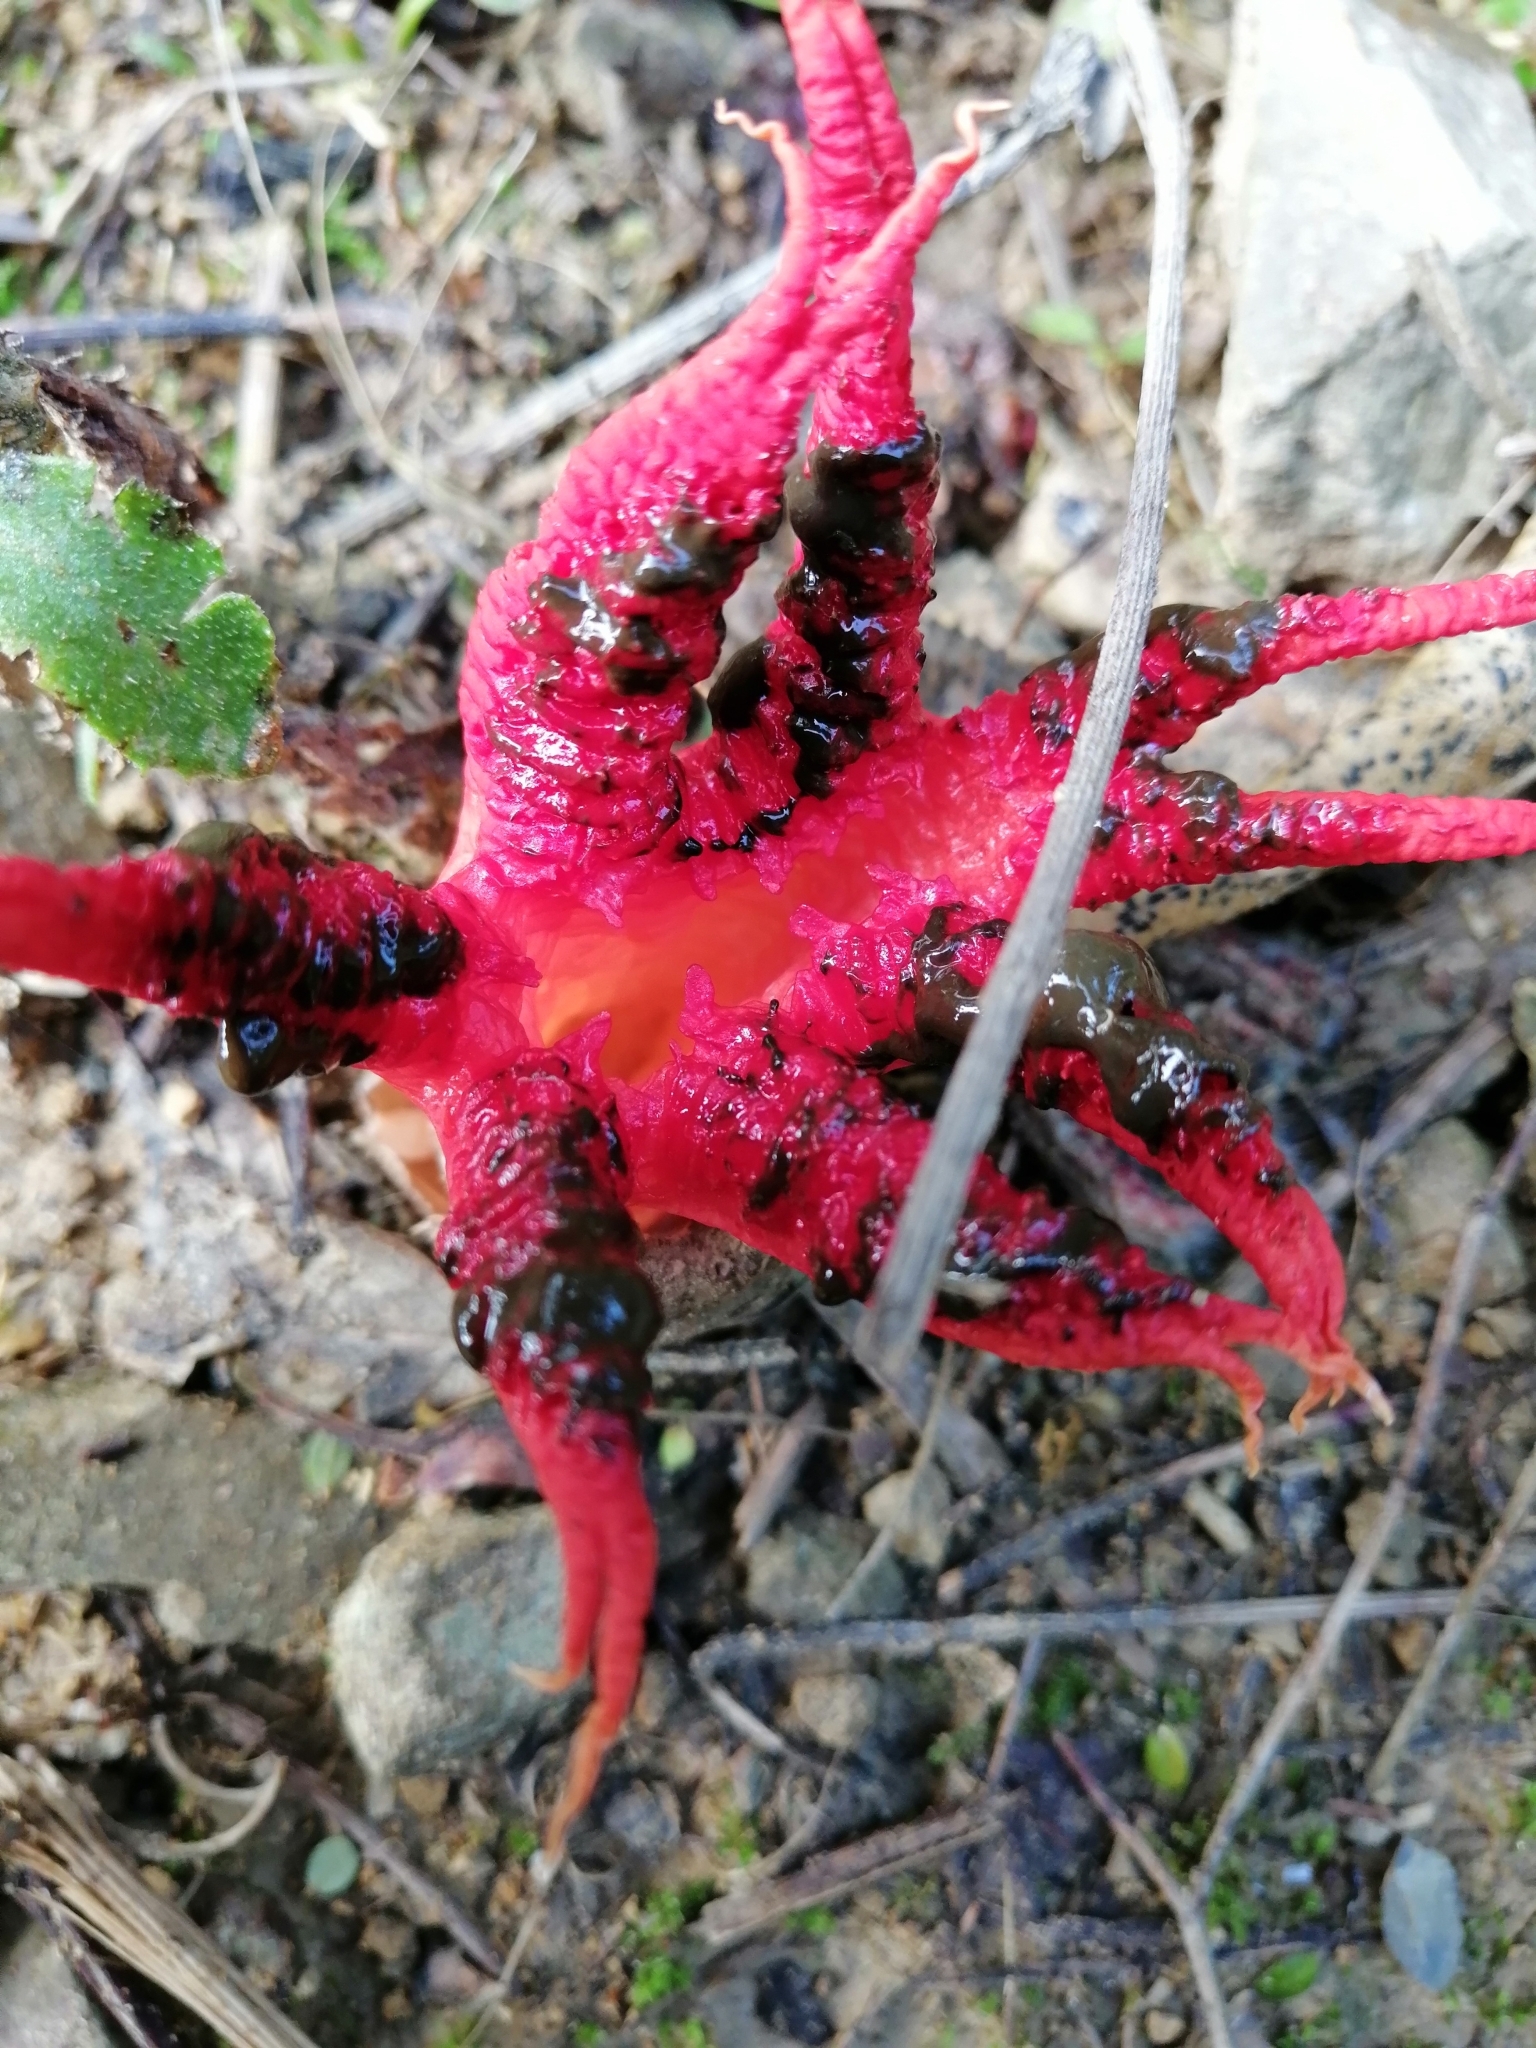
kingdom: Fungi
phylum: Basidiomycota
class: Agaricomycetes
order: Phallales
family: Phallaceae
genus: Clathrus
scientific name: Clathrus archeri
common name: Devil's fingers
